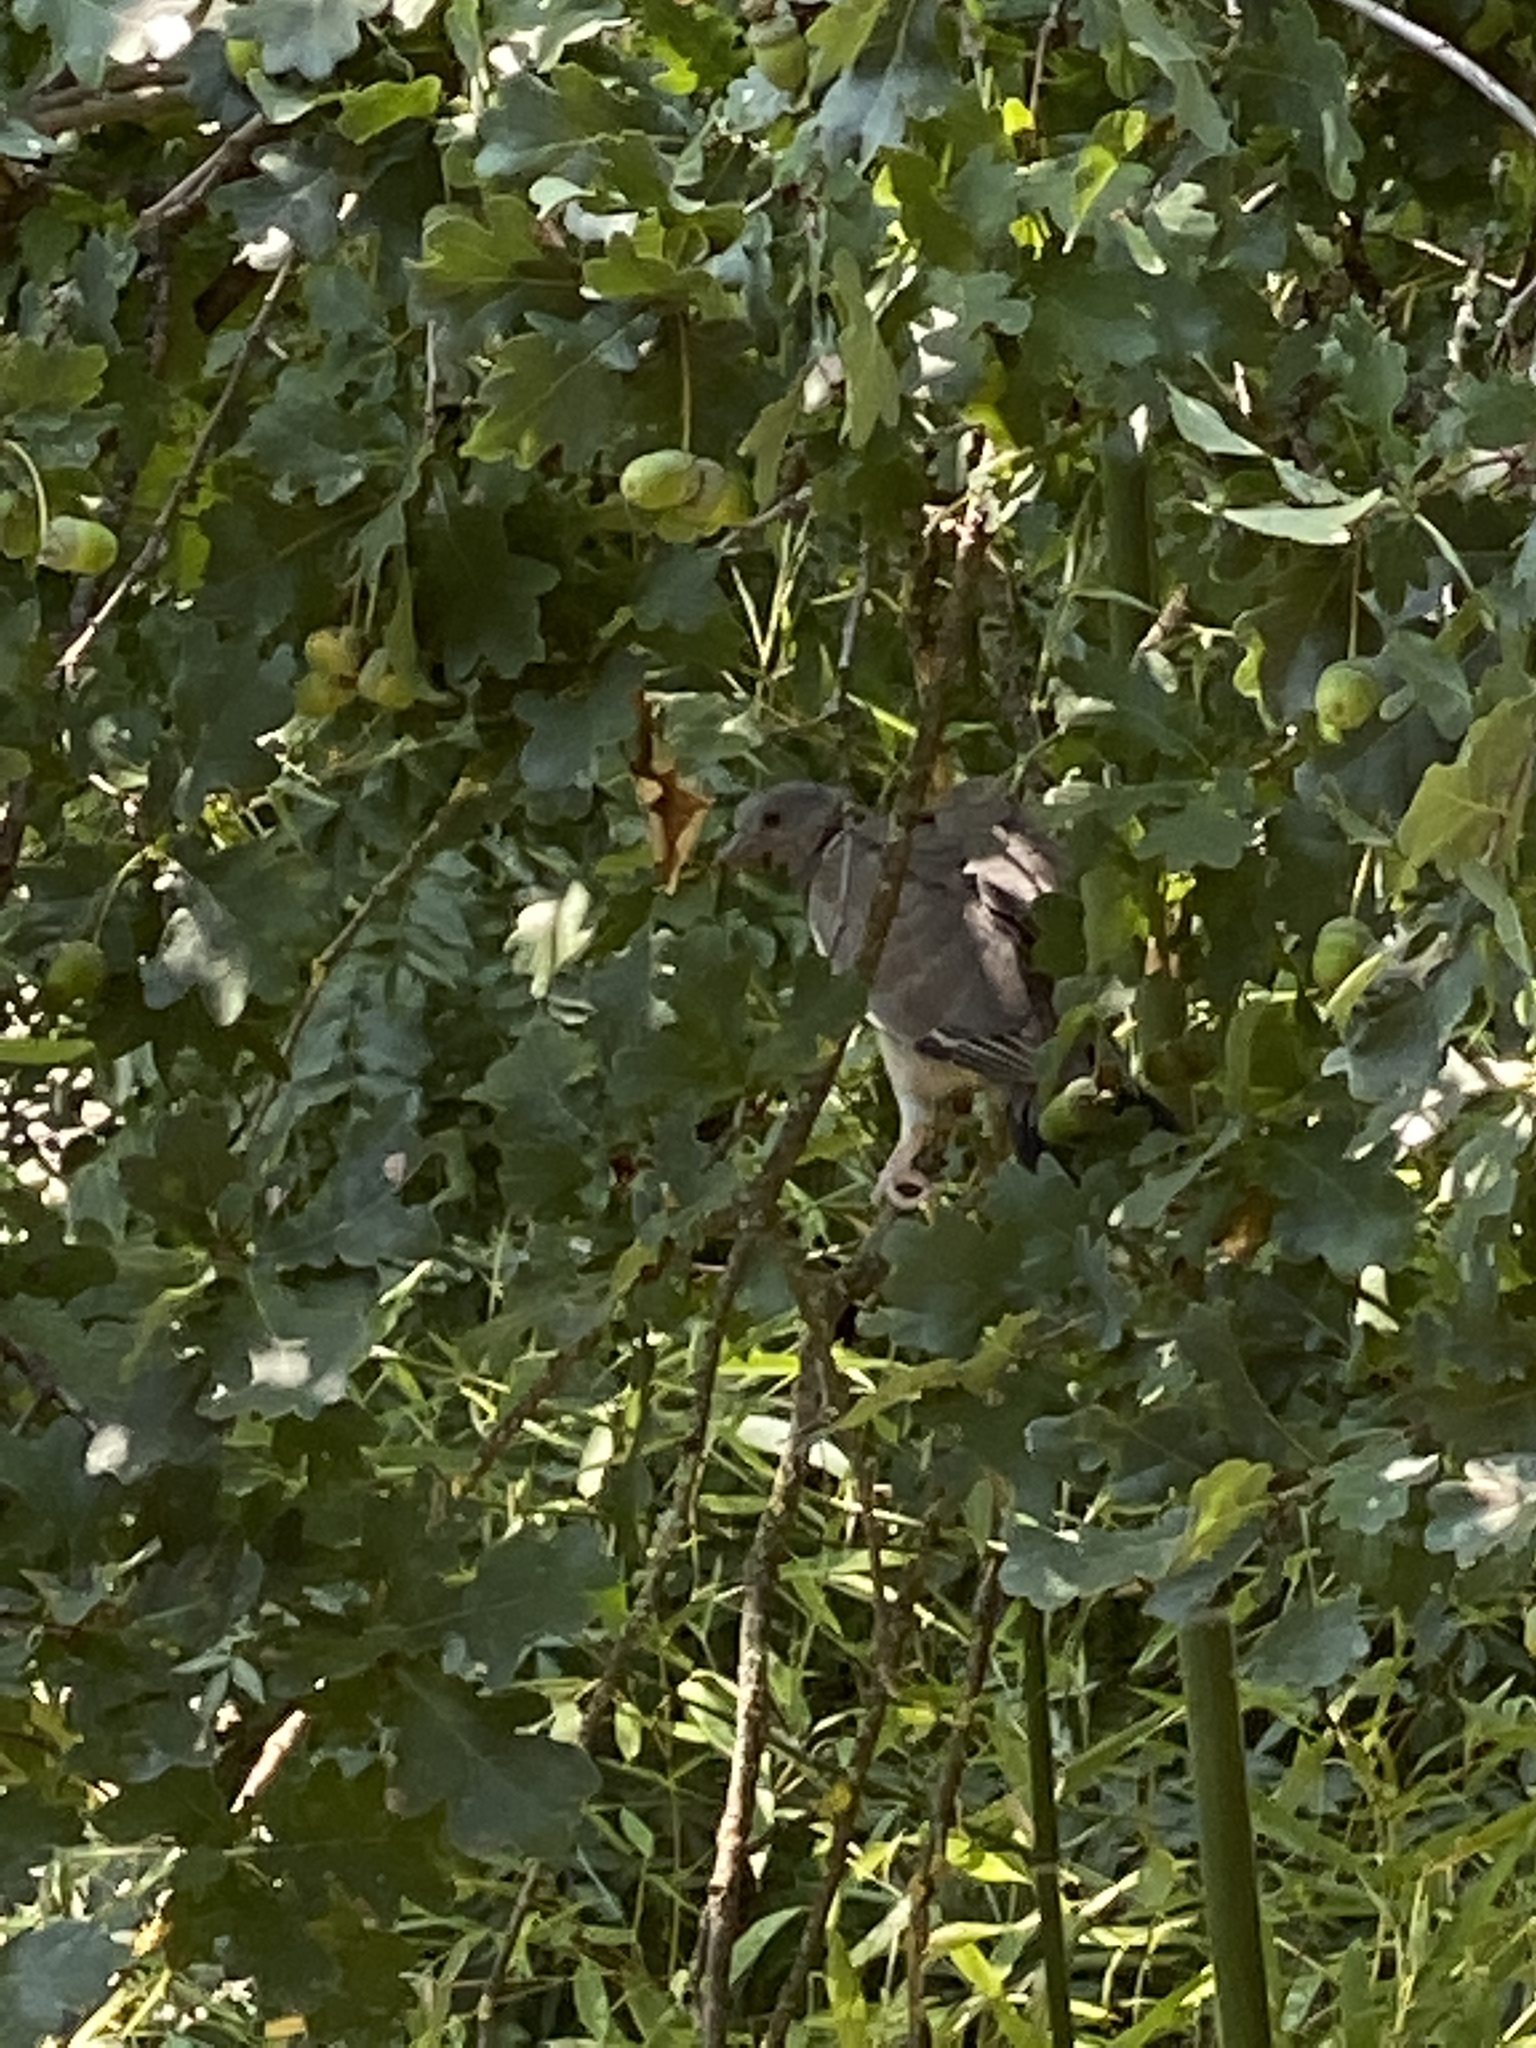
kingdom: Animalia
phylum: Chordata
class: Aves
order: Columbiformes
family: Columbidae
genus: Columba
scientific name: Columba palumbus
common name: Common wood pigeon
